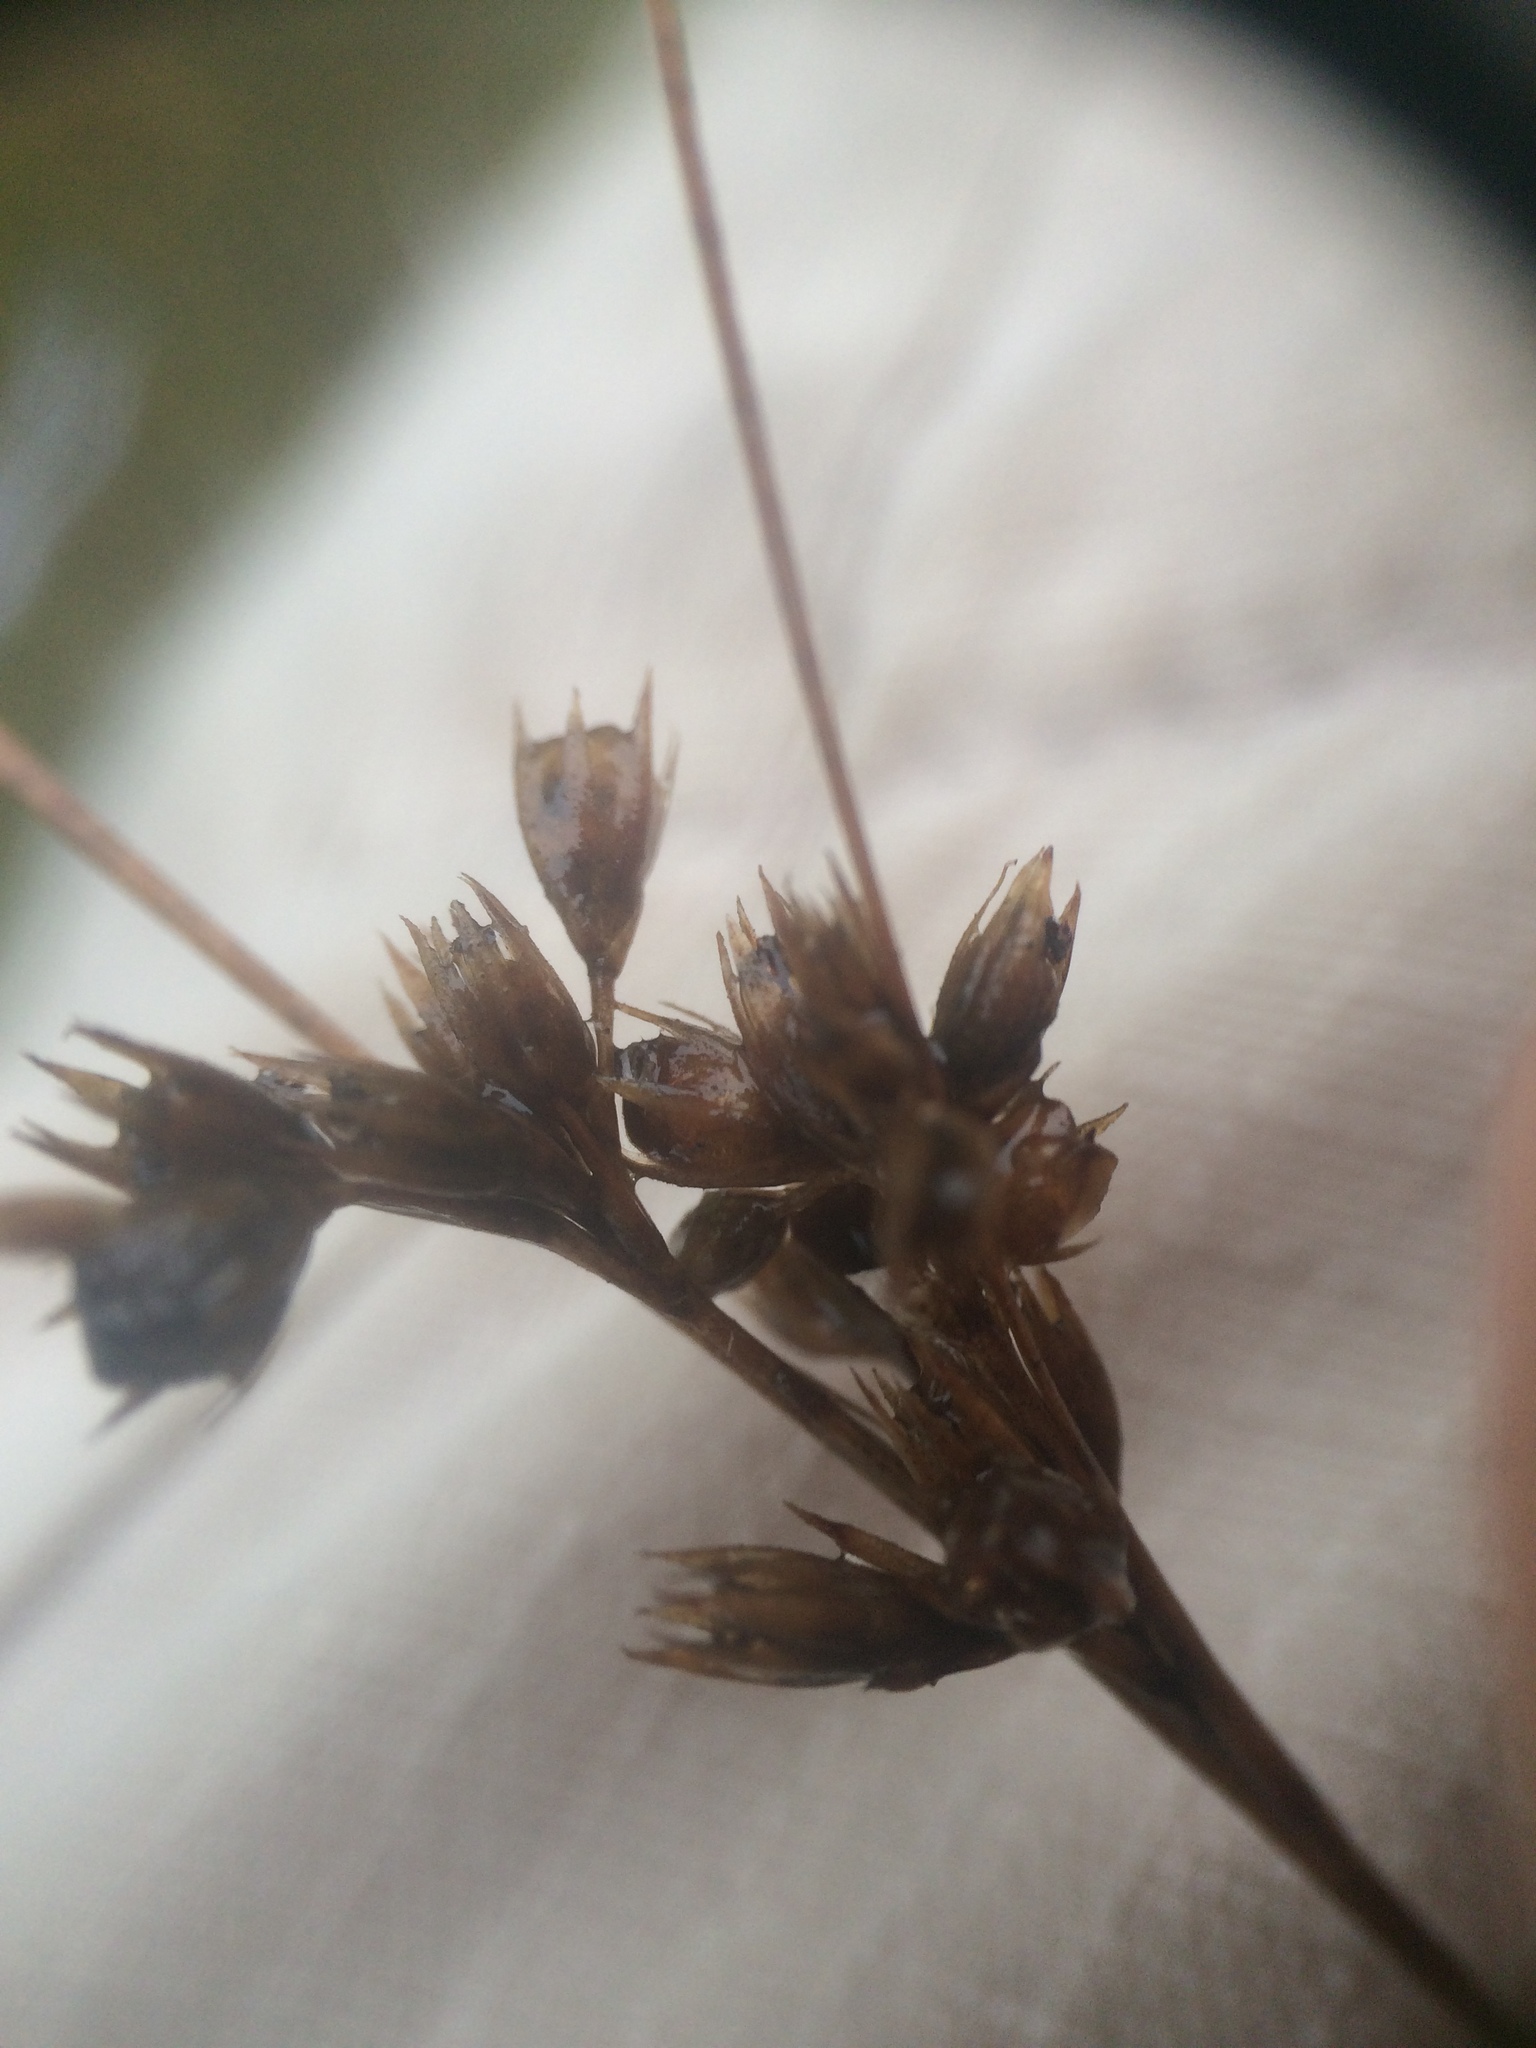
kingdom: Plantae
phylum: Tracheophyta
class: Liliopsida
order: Poales
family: Juncaceae
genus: Juncus
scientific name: Juncus dudleyi
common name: Dudley's rush
